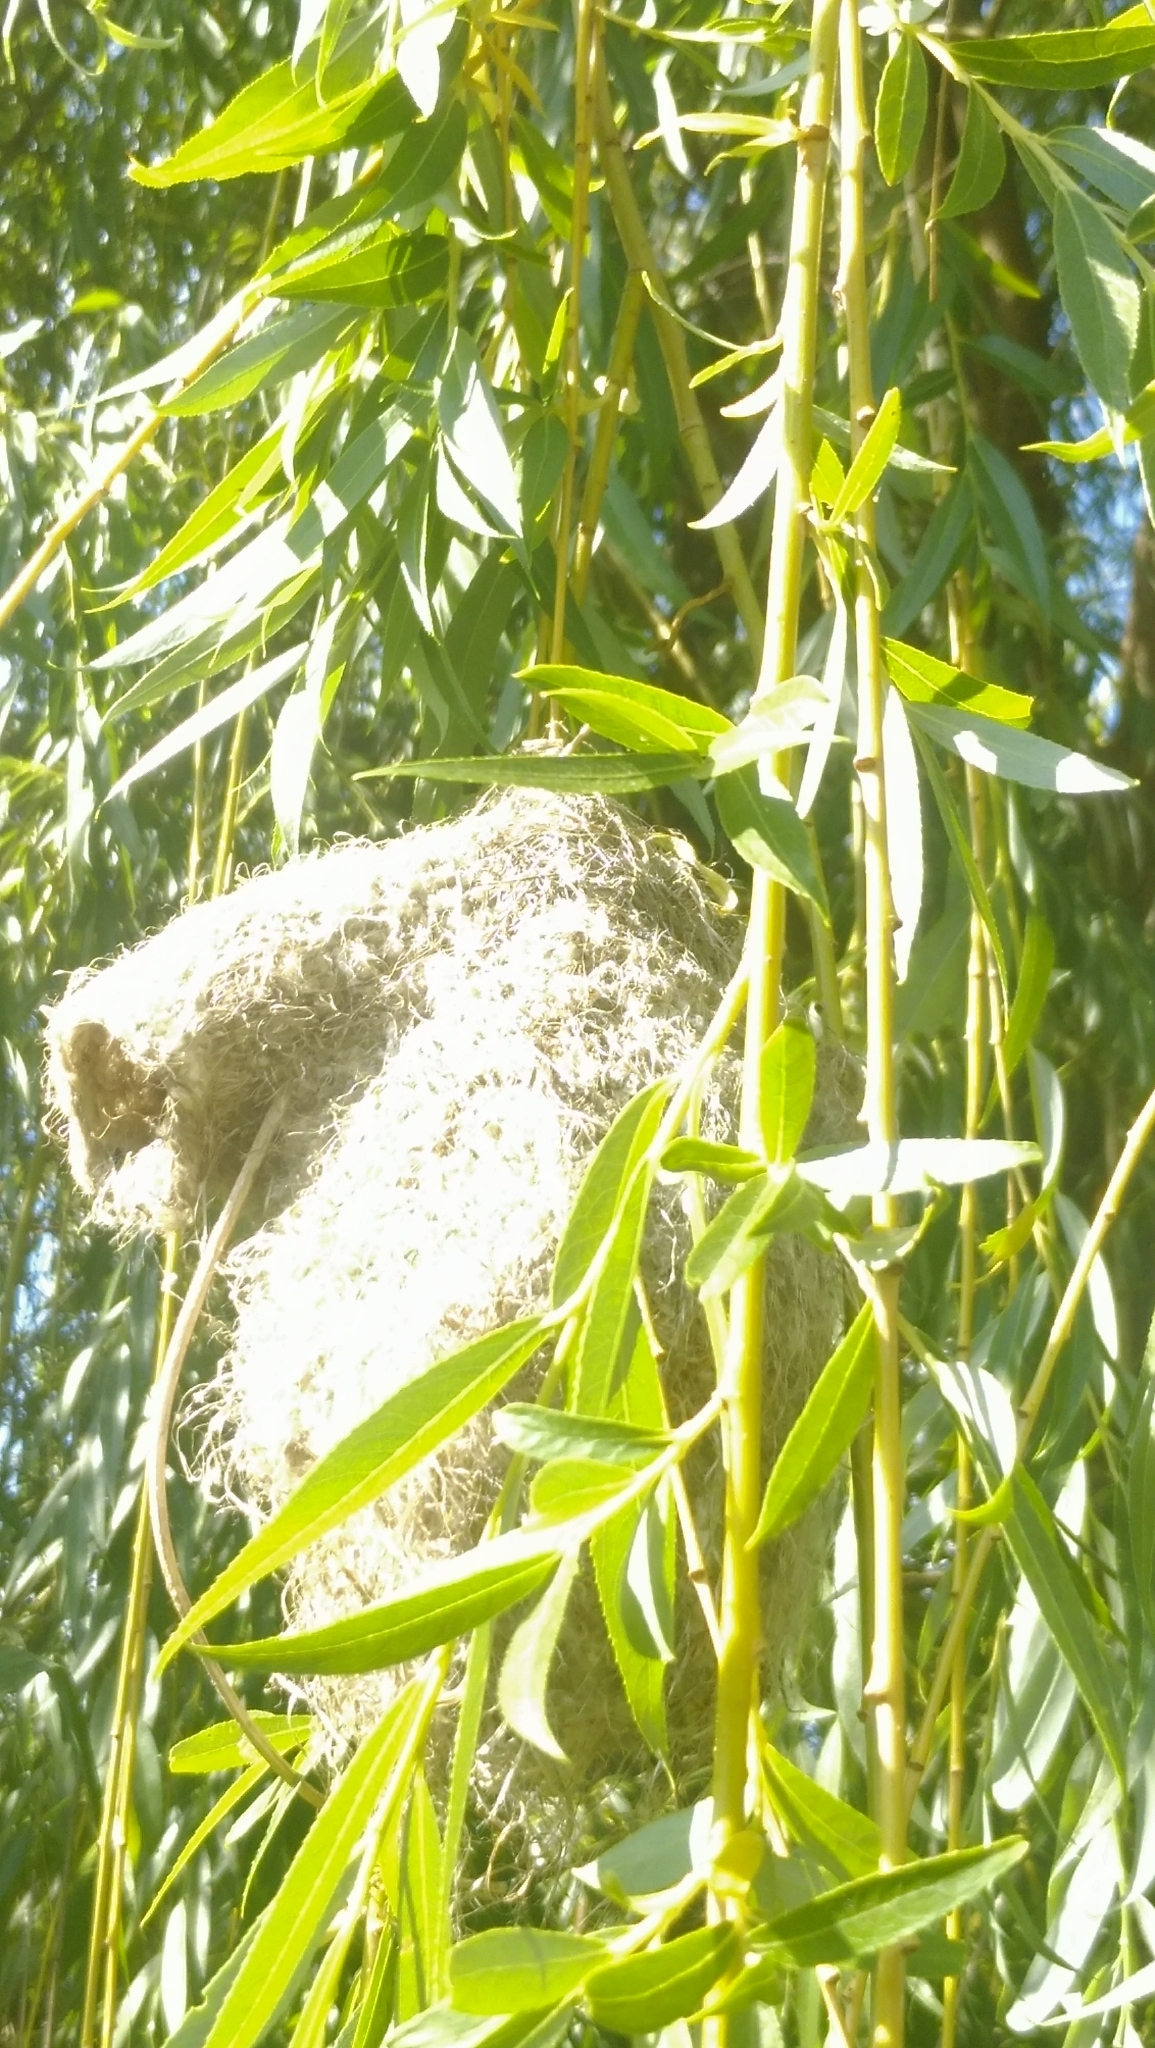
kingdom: Animalia
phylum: Chordata
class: Aves
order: Passeriformes
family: Remizidae
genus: Remiz
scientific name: Remiz pendulinus
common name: Eurasian penduline tit
